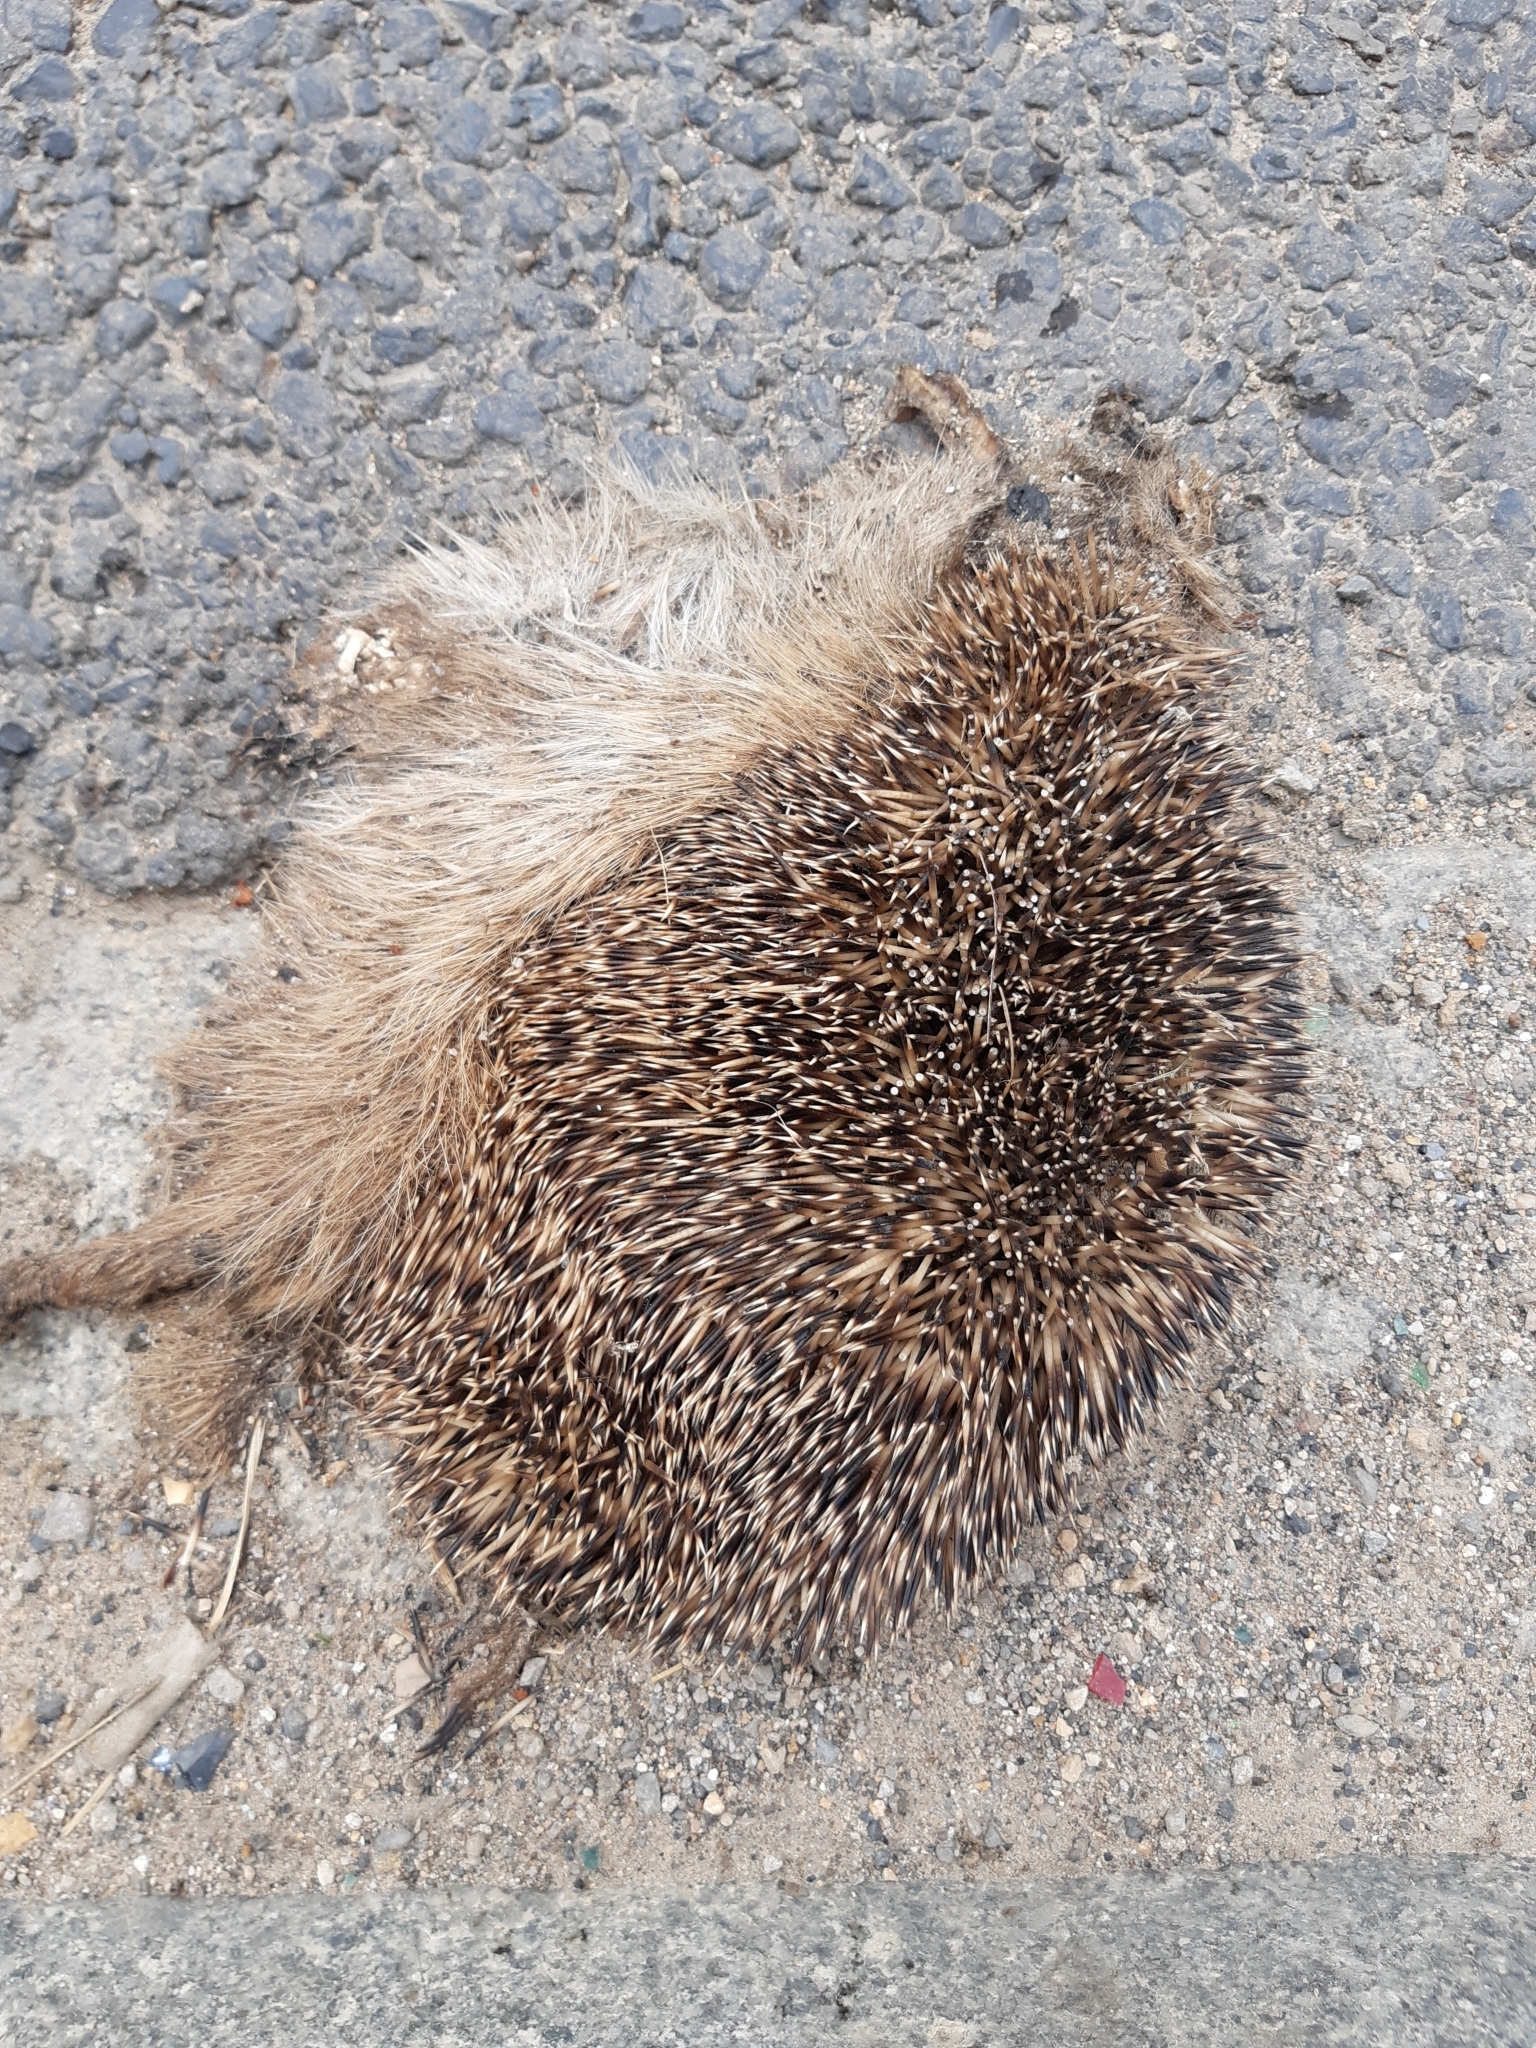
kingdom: Animalia
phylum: Chordata
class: Mammalia
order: Erinaceomorpha
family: Erinaceidae
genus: Erinaceus
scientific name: Erinaceus europaeus
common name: West european hedgehog
